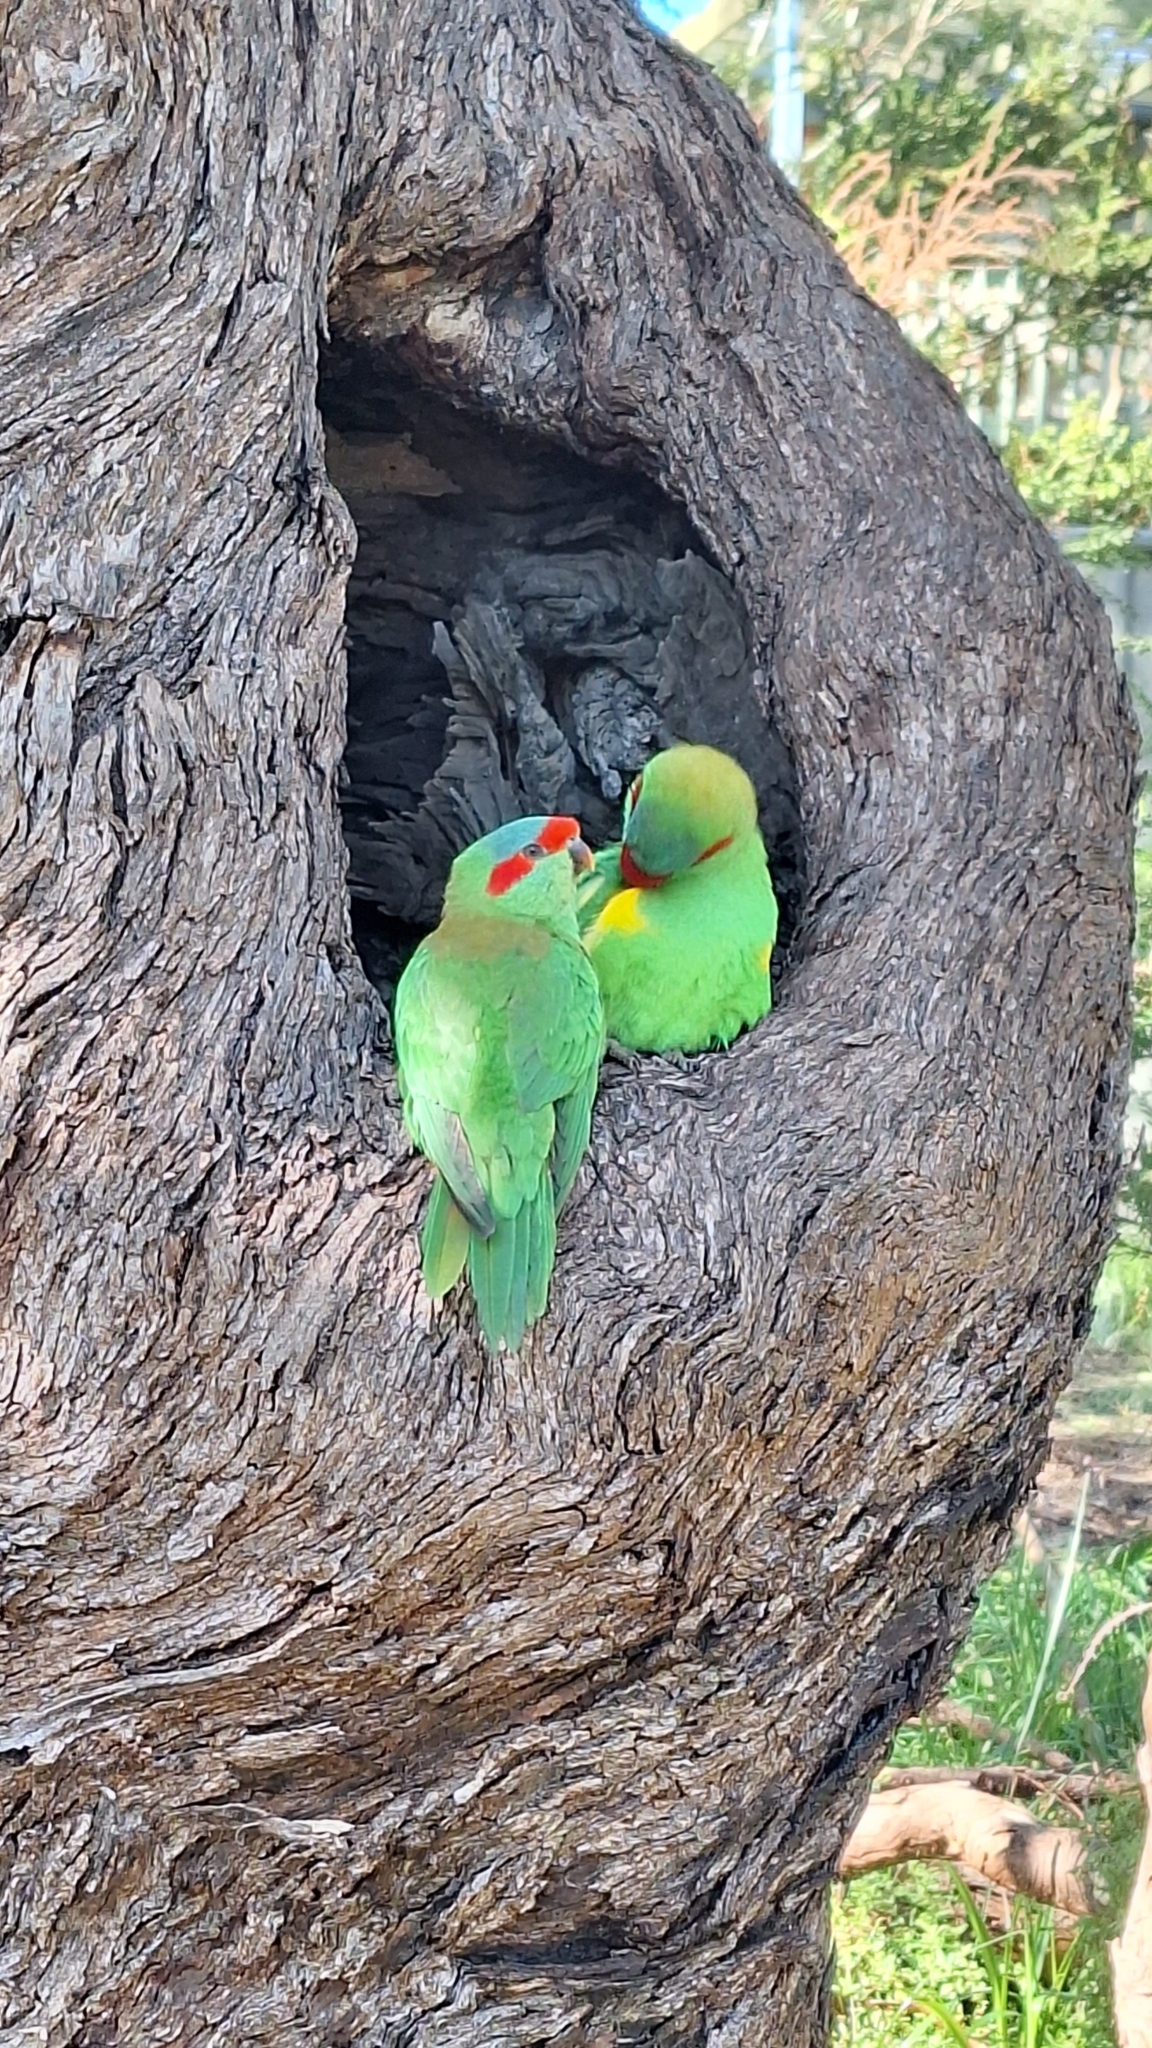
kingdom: Animalia
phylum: Chordata
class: Aves
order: Psittaciformes
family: Psittacidae
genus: Glossopsitta
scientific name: Glossopsitta concinna
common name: Musk lorikeet
